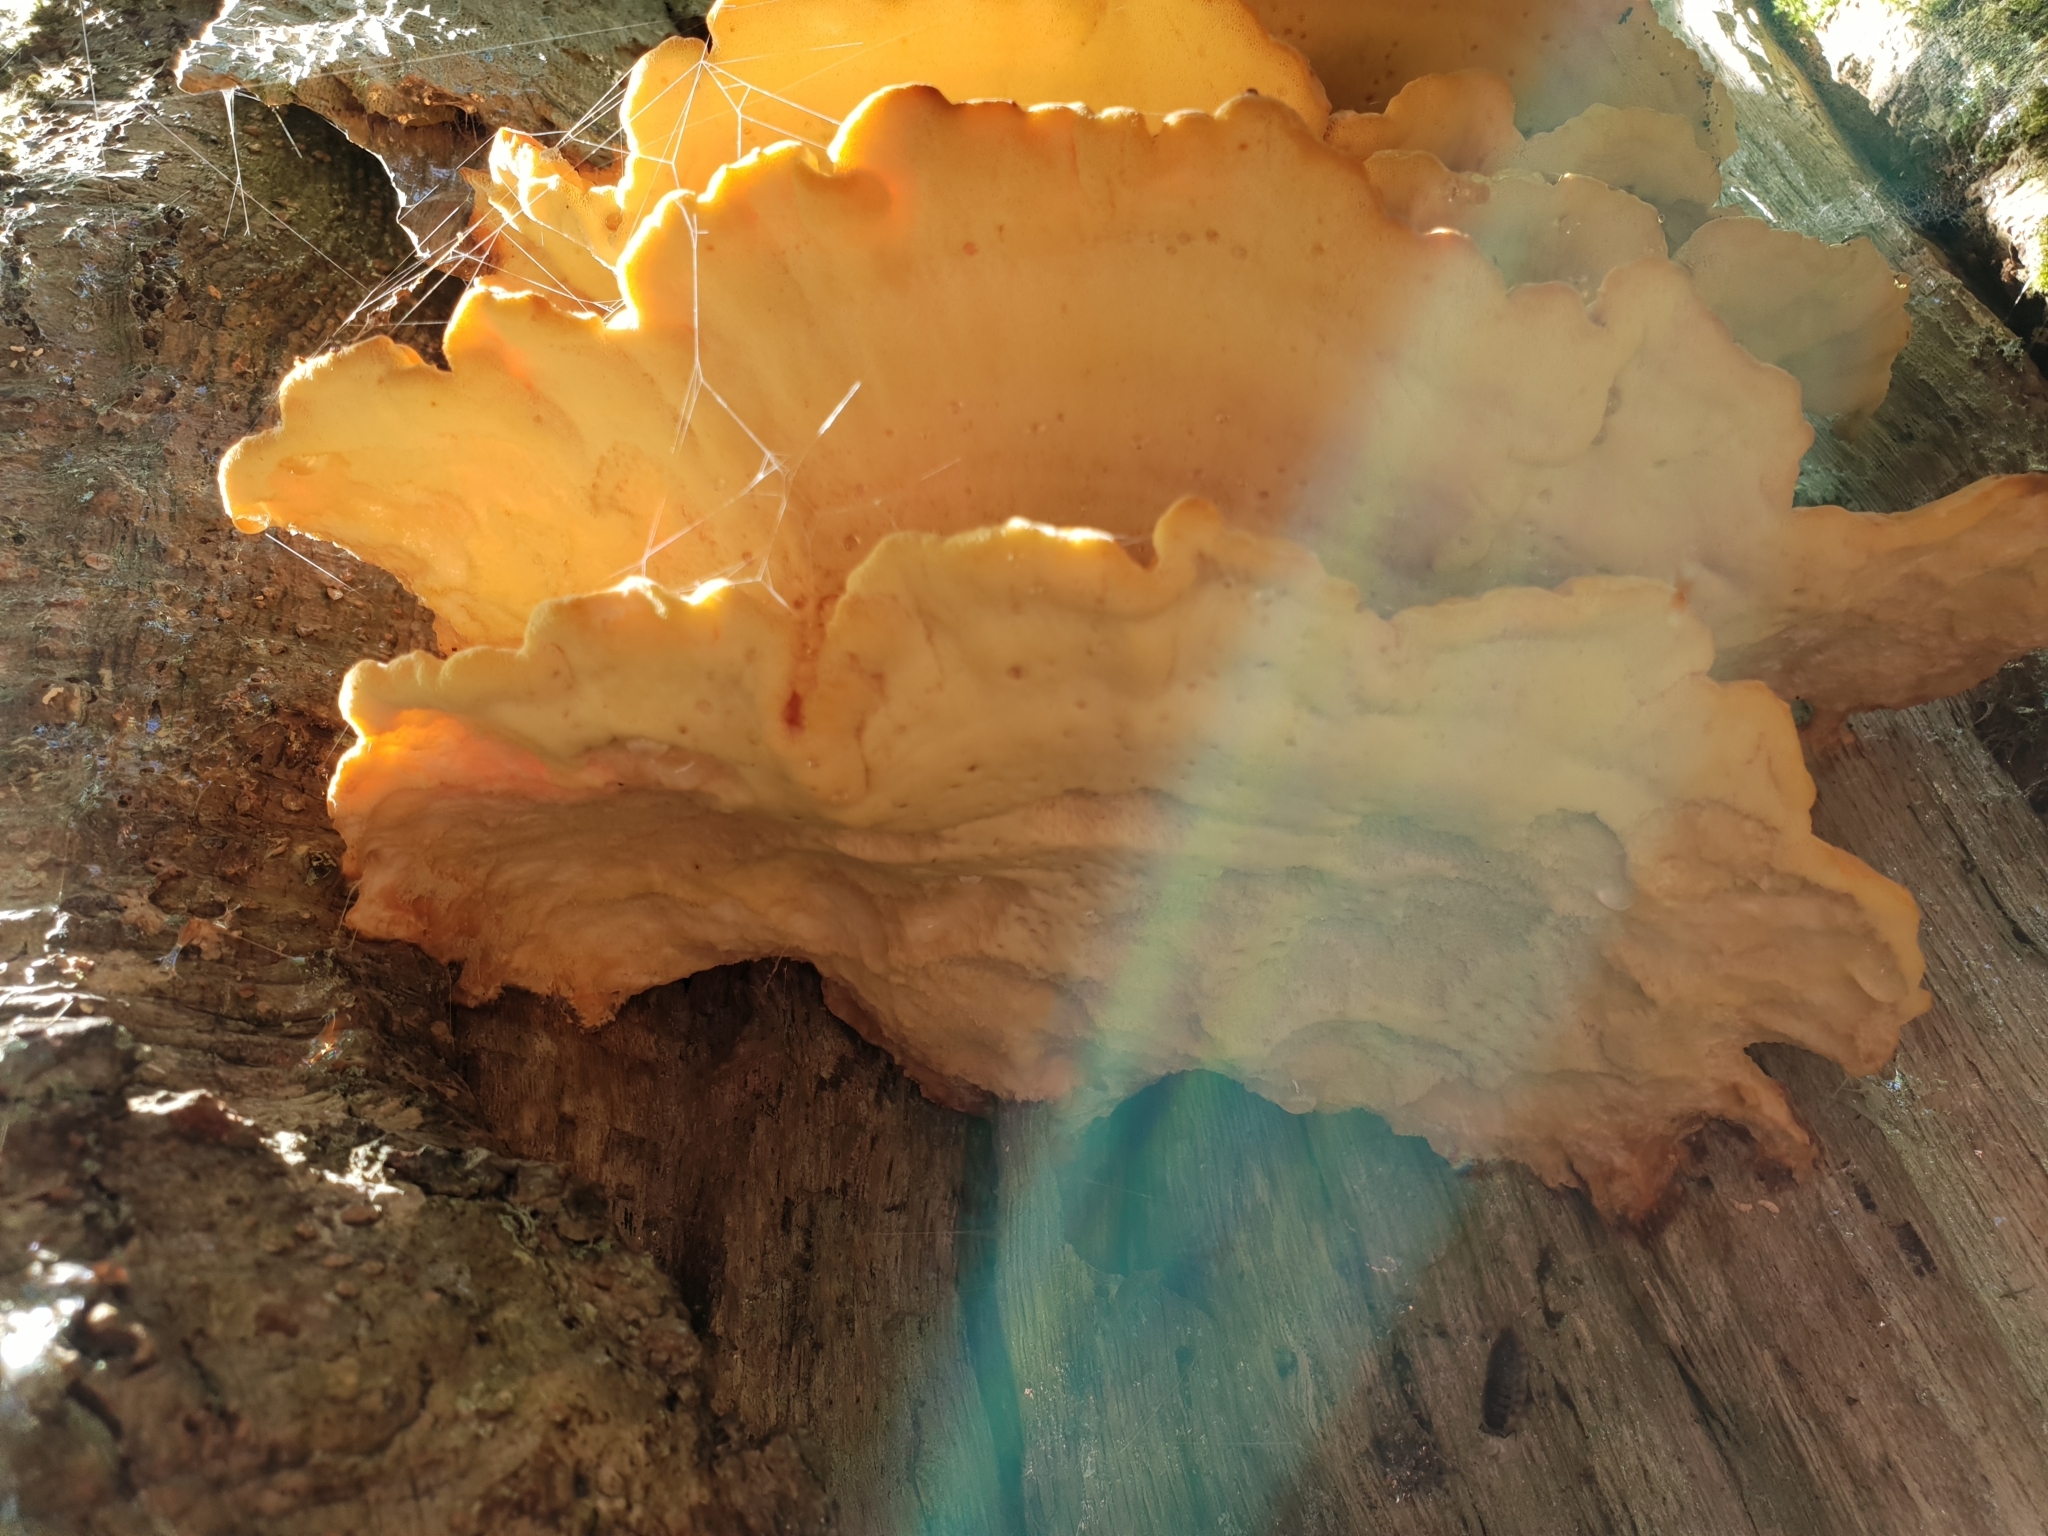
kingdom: Fungi
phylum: Basidiomycota
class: Agaricomycetes
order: Polyporales
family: Laetiporaceae
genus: Laetiporus
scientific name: Laetiporus sulphureus
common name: Chicken of the woods
